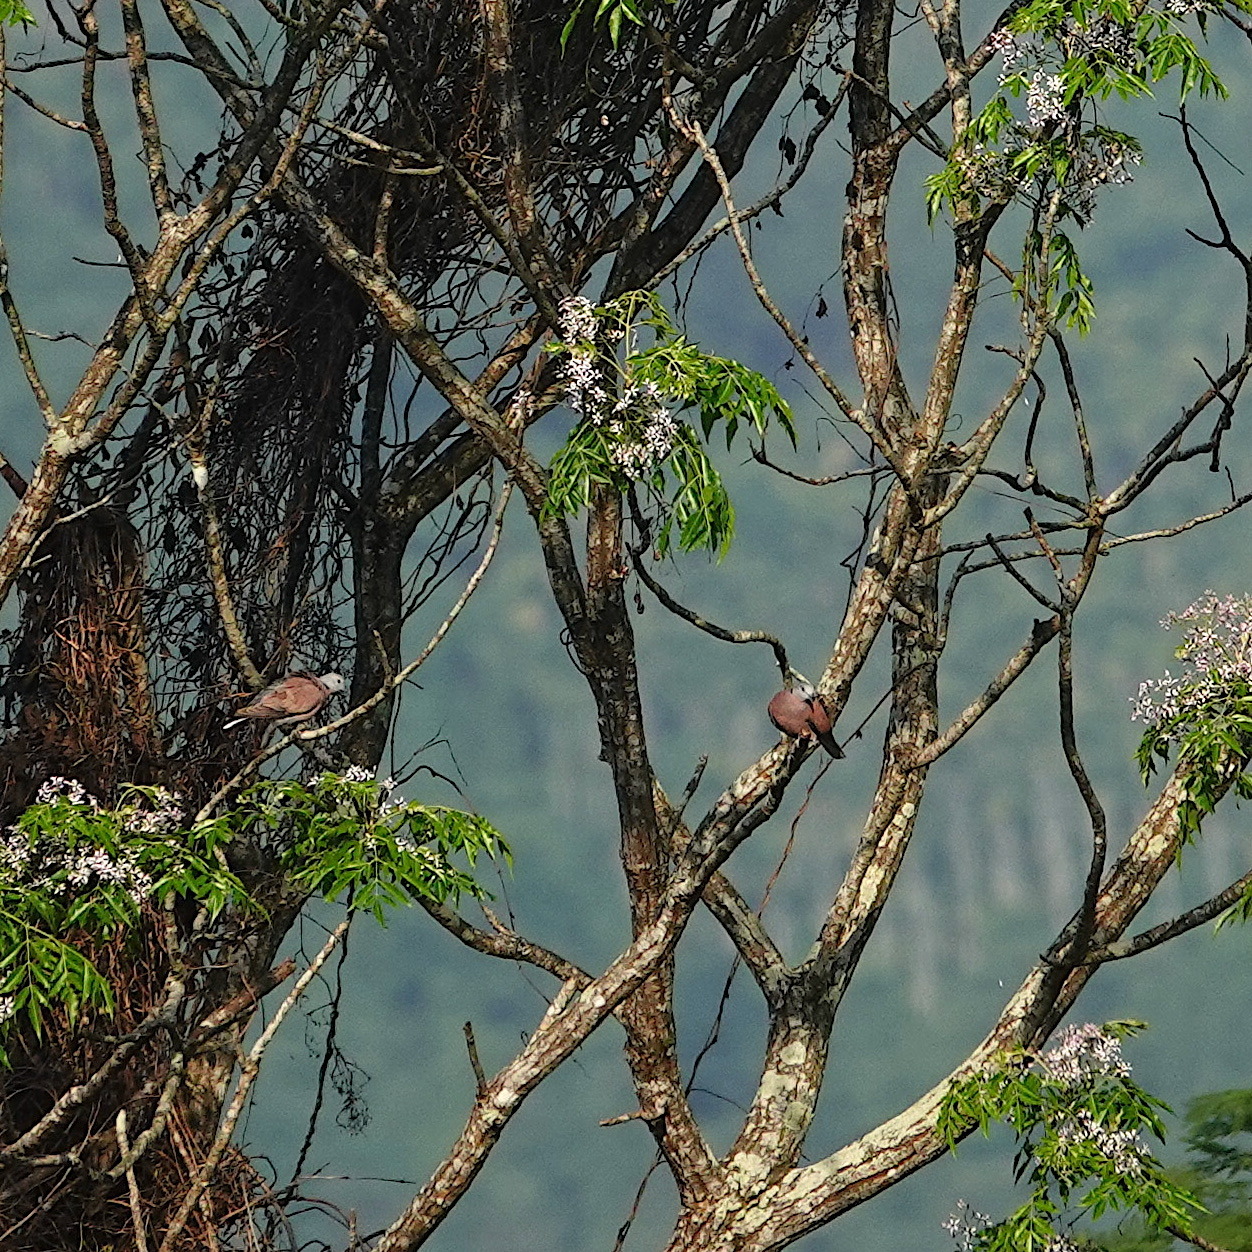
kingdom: Animalia
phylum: Chordata
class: Aves
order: Columbiformes
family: Columbidae
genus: Streptopelia
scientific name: Streptopelia tranquebarica
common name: Red turtle dove
